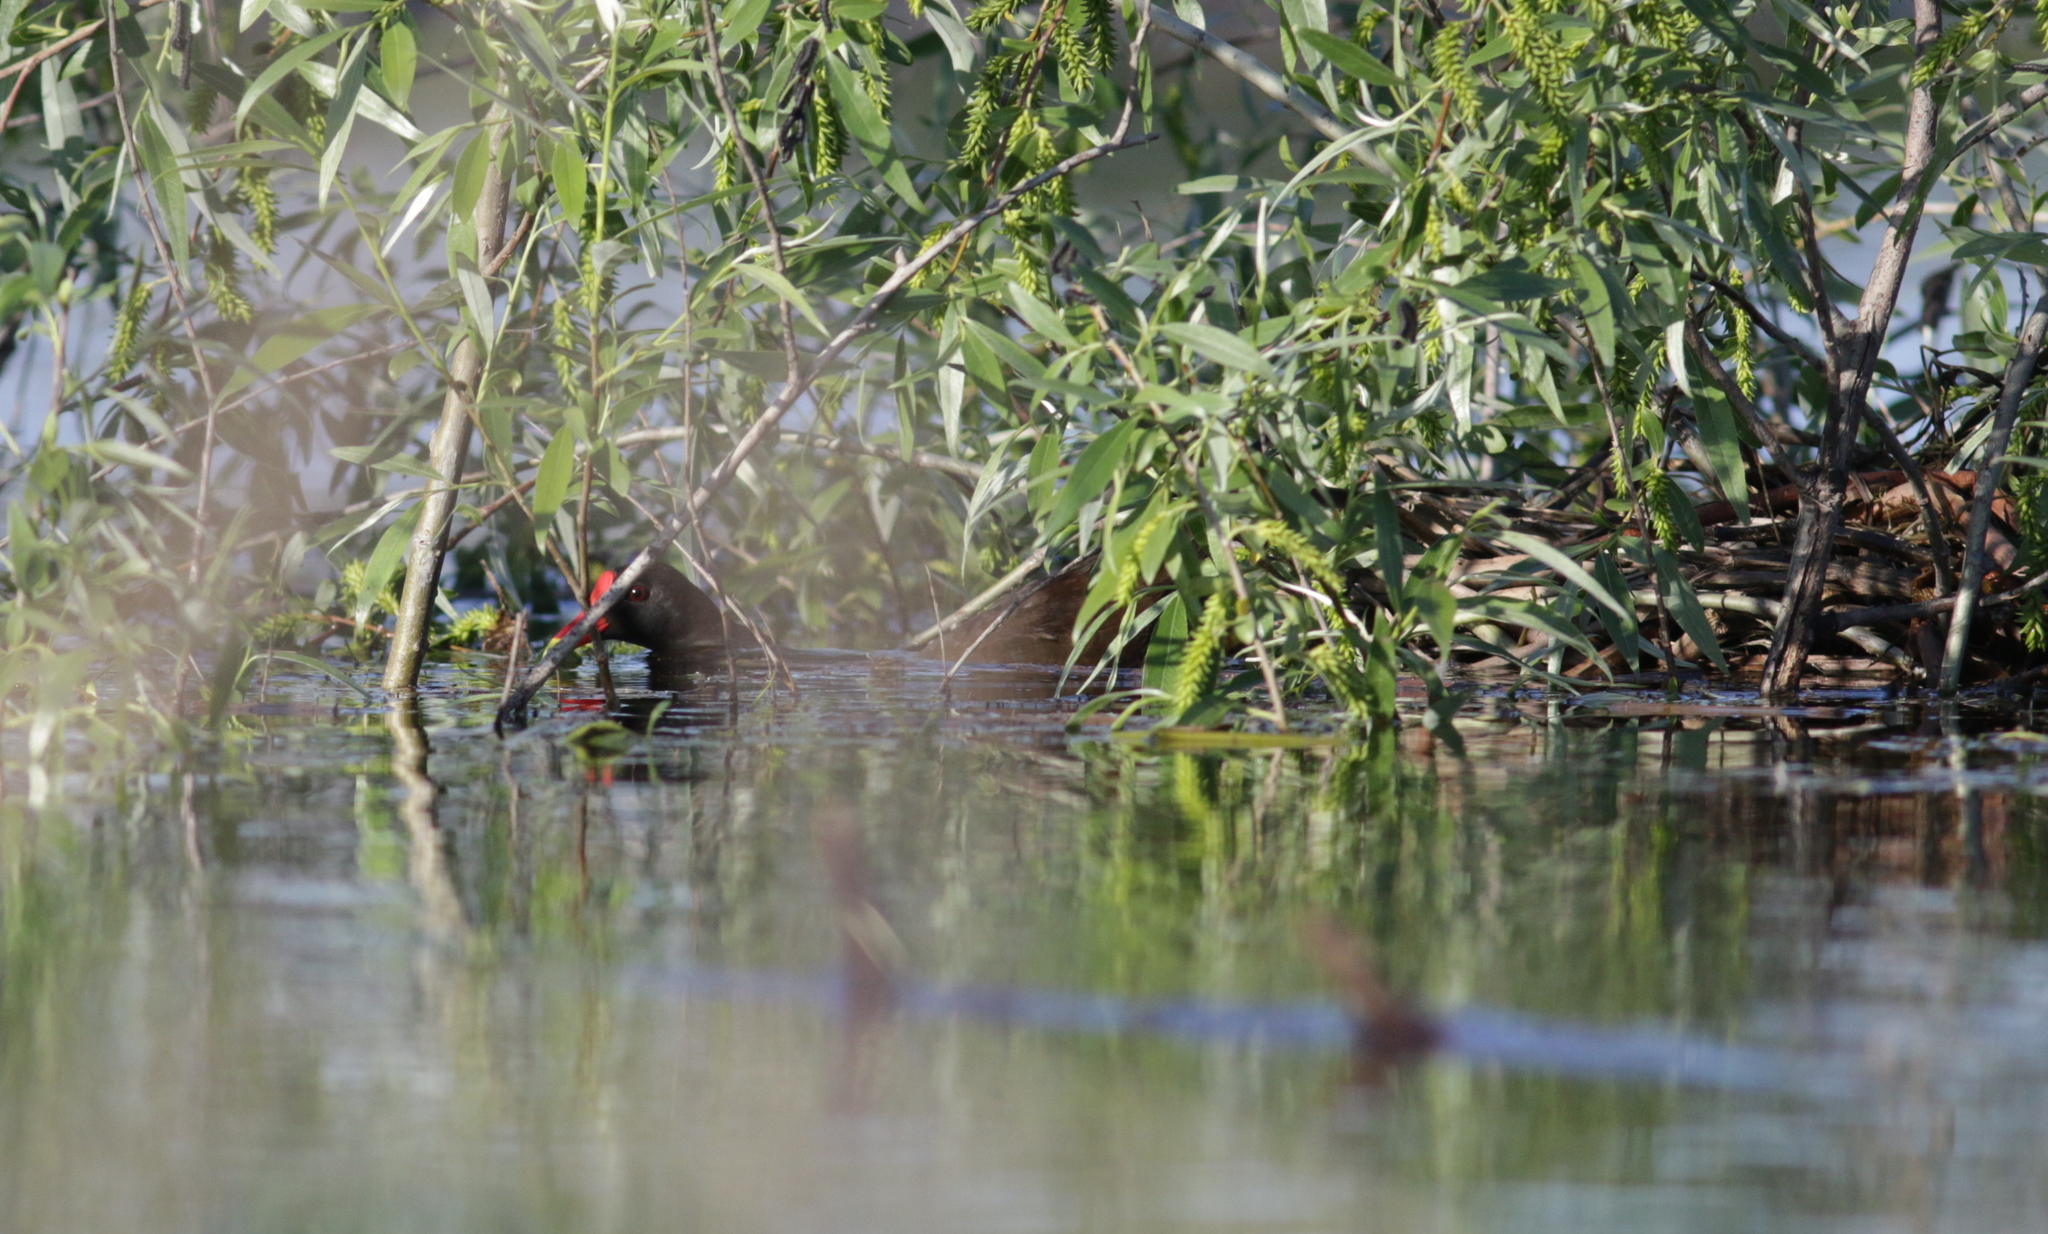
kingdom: Animalia
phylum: Chordata
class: Aves
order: Gruiformes
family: Rallidae
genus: Gallinula
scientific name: Gallinula chloropus
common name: Common moorhen
